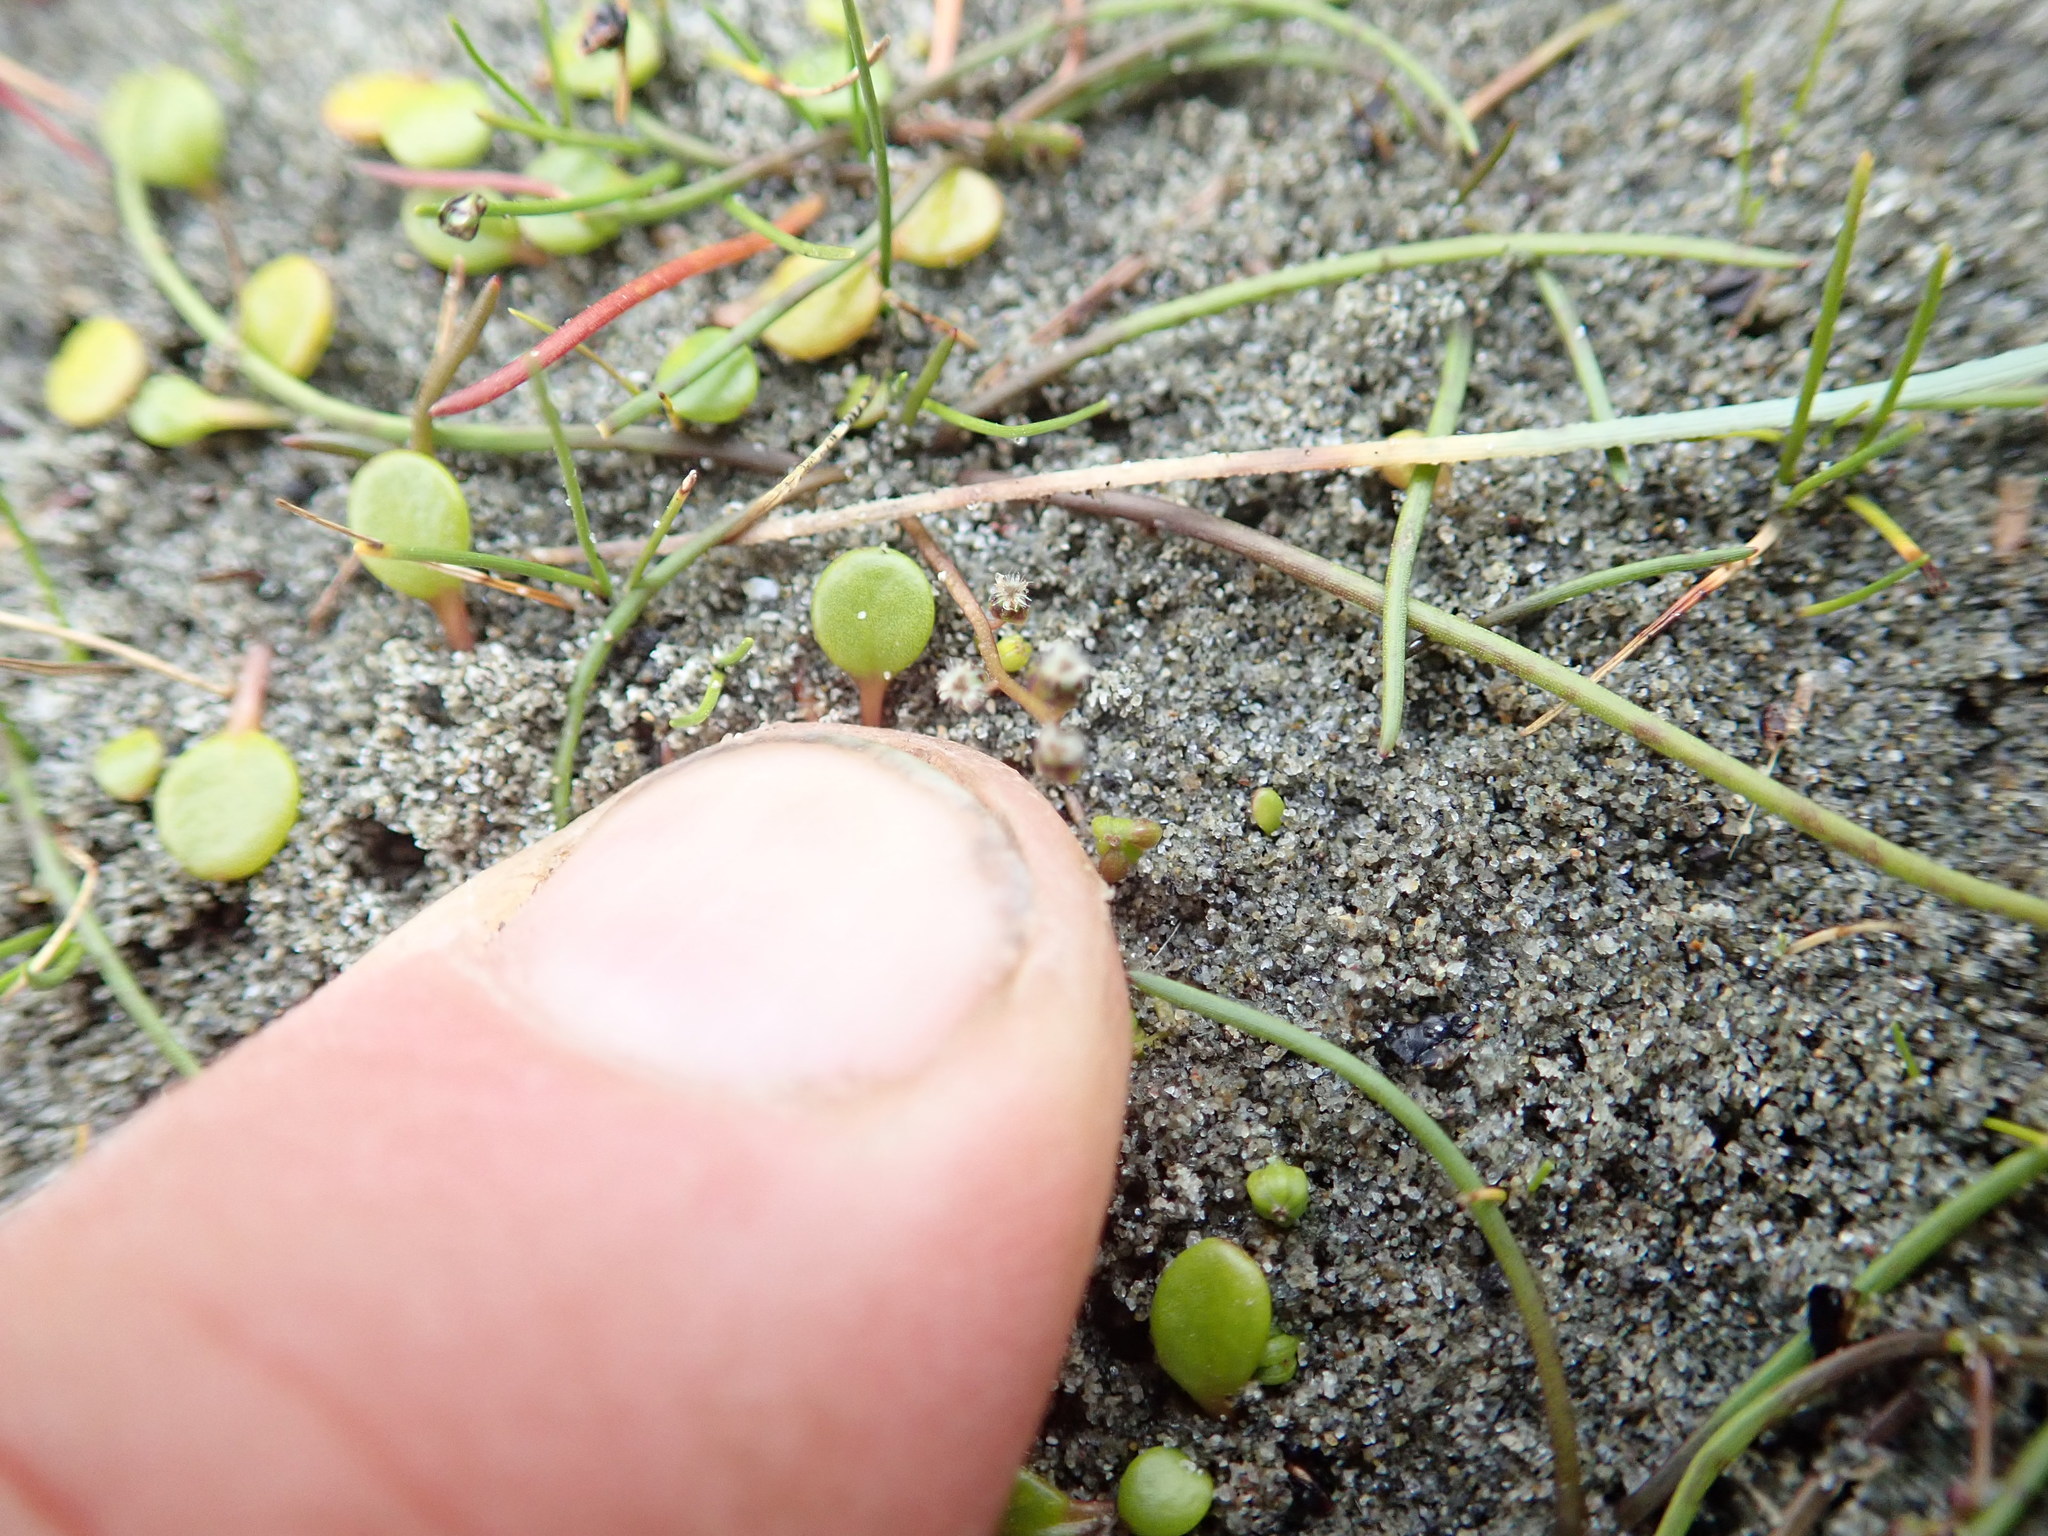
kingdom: Plantae
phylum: Tracheophyta
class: Liliopsida
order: Alismatales
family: Juncaginaceae
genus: Triglochin
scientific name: Triglochin striata
